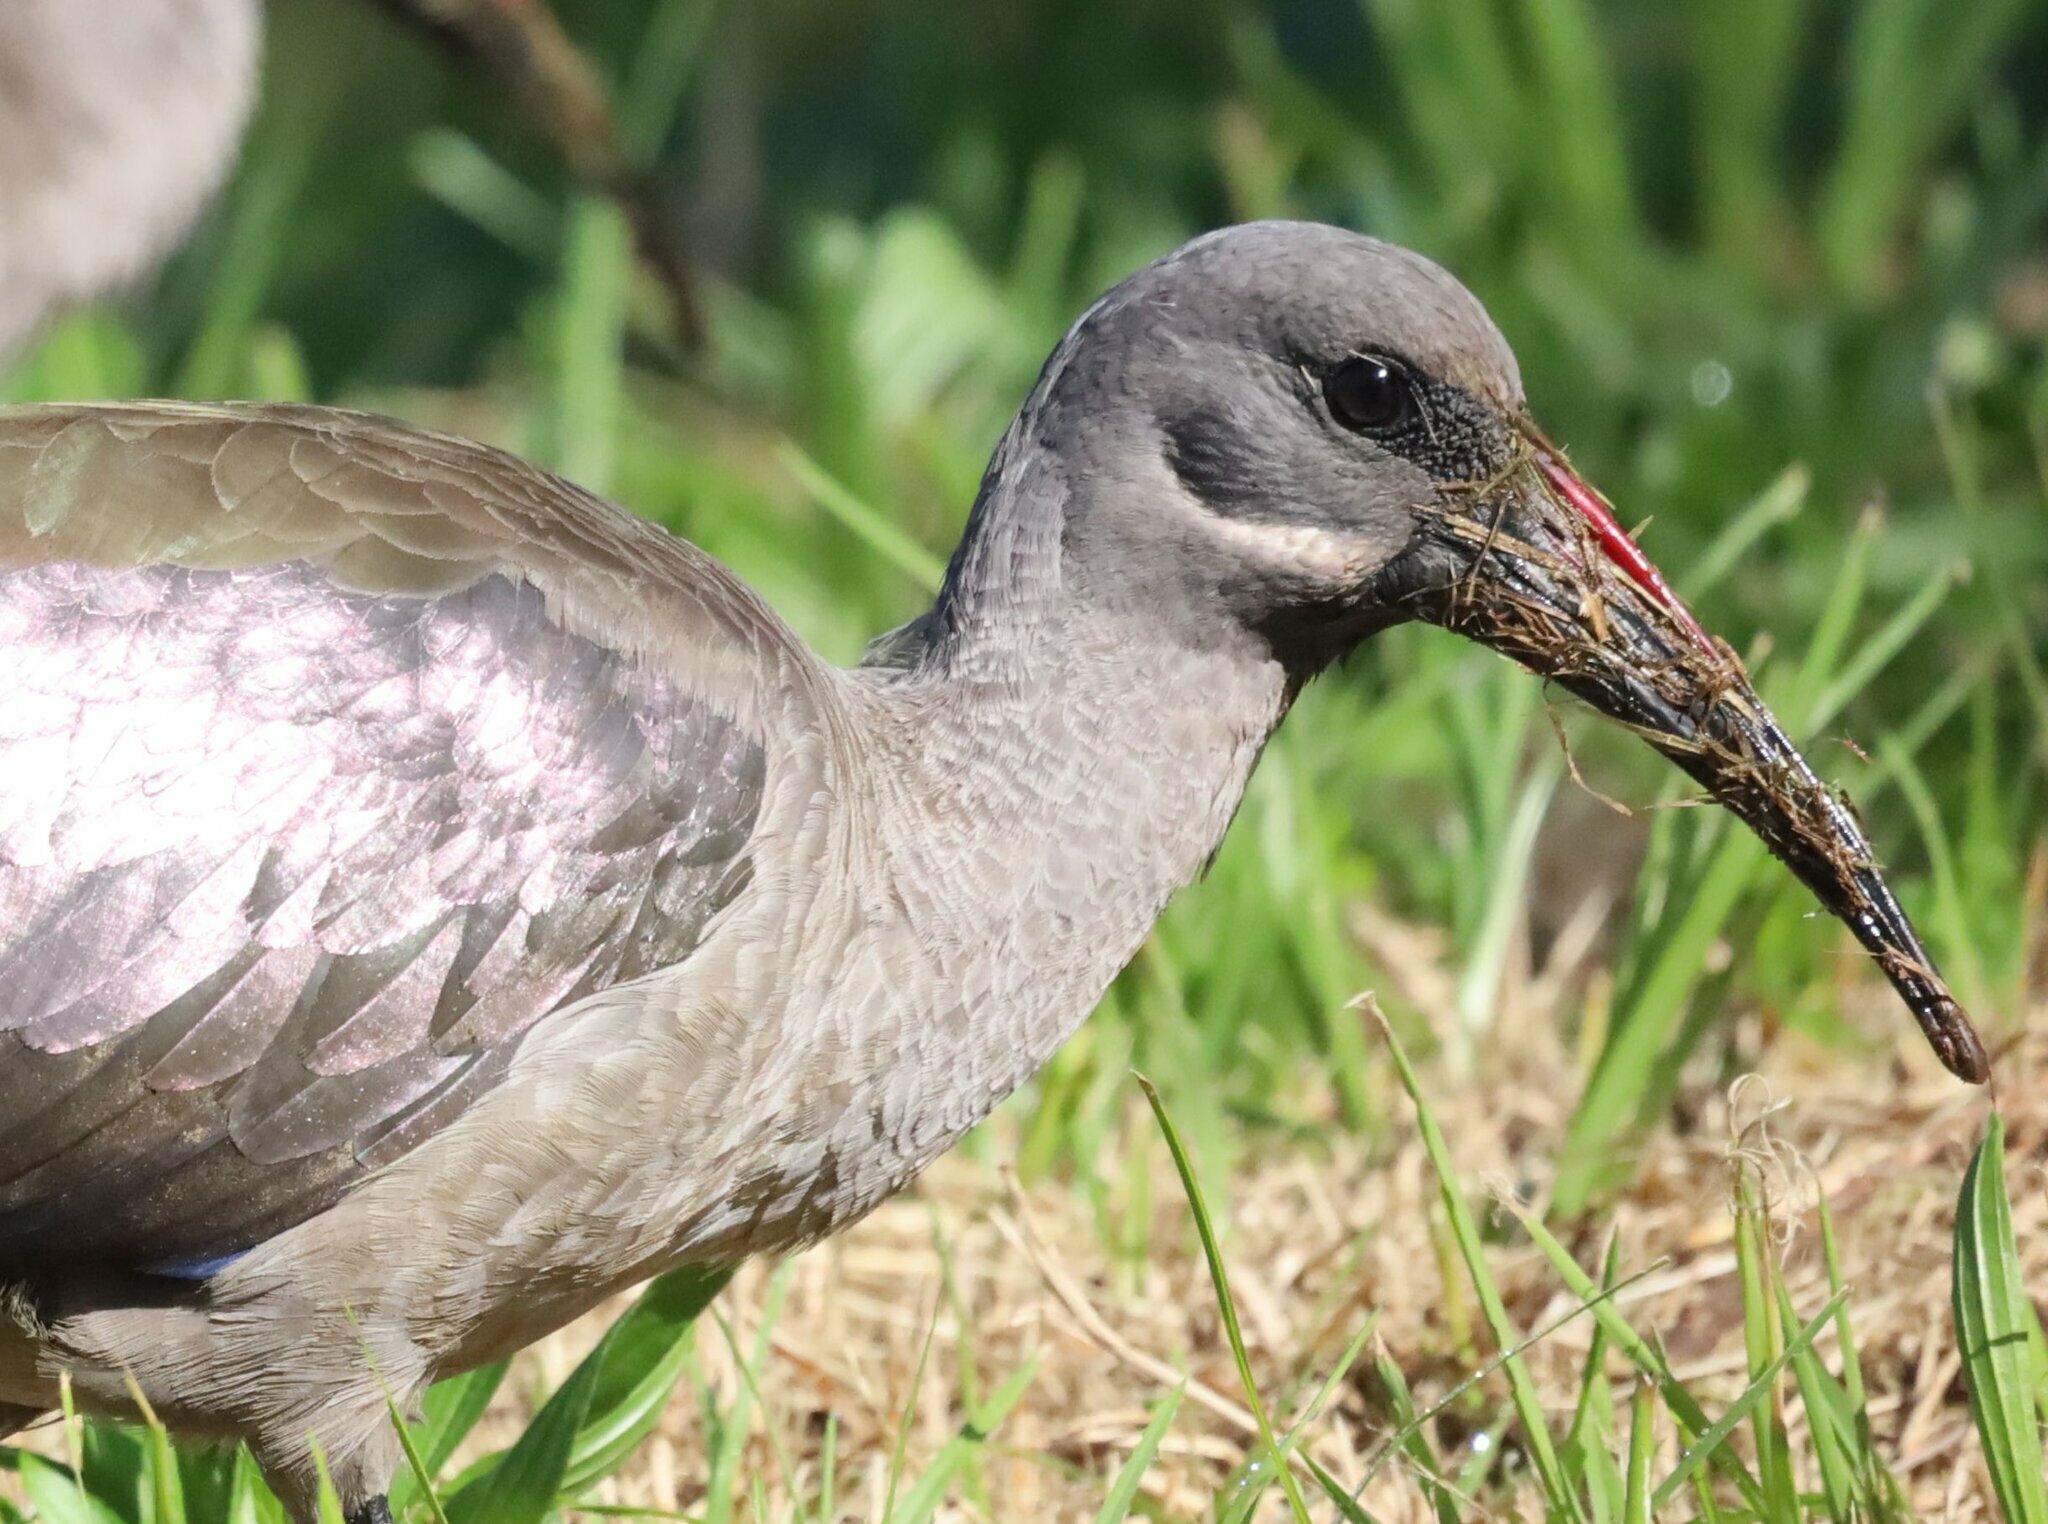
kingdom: Animalia
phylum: Chordata
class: Aves
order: Pelecaniformes
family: Threskiornithidae
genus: Bostrychia
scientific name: Bostrychia hagedash
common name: Hadada ibis
